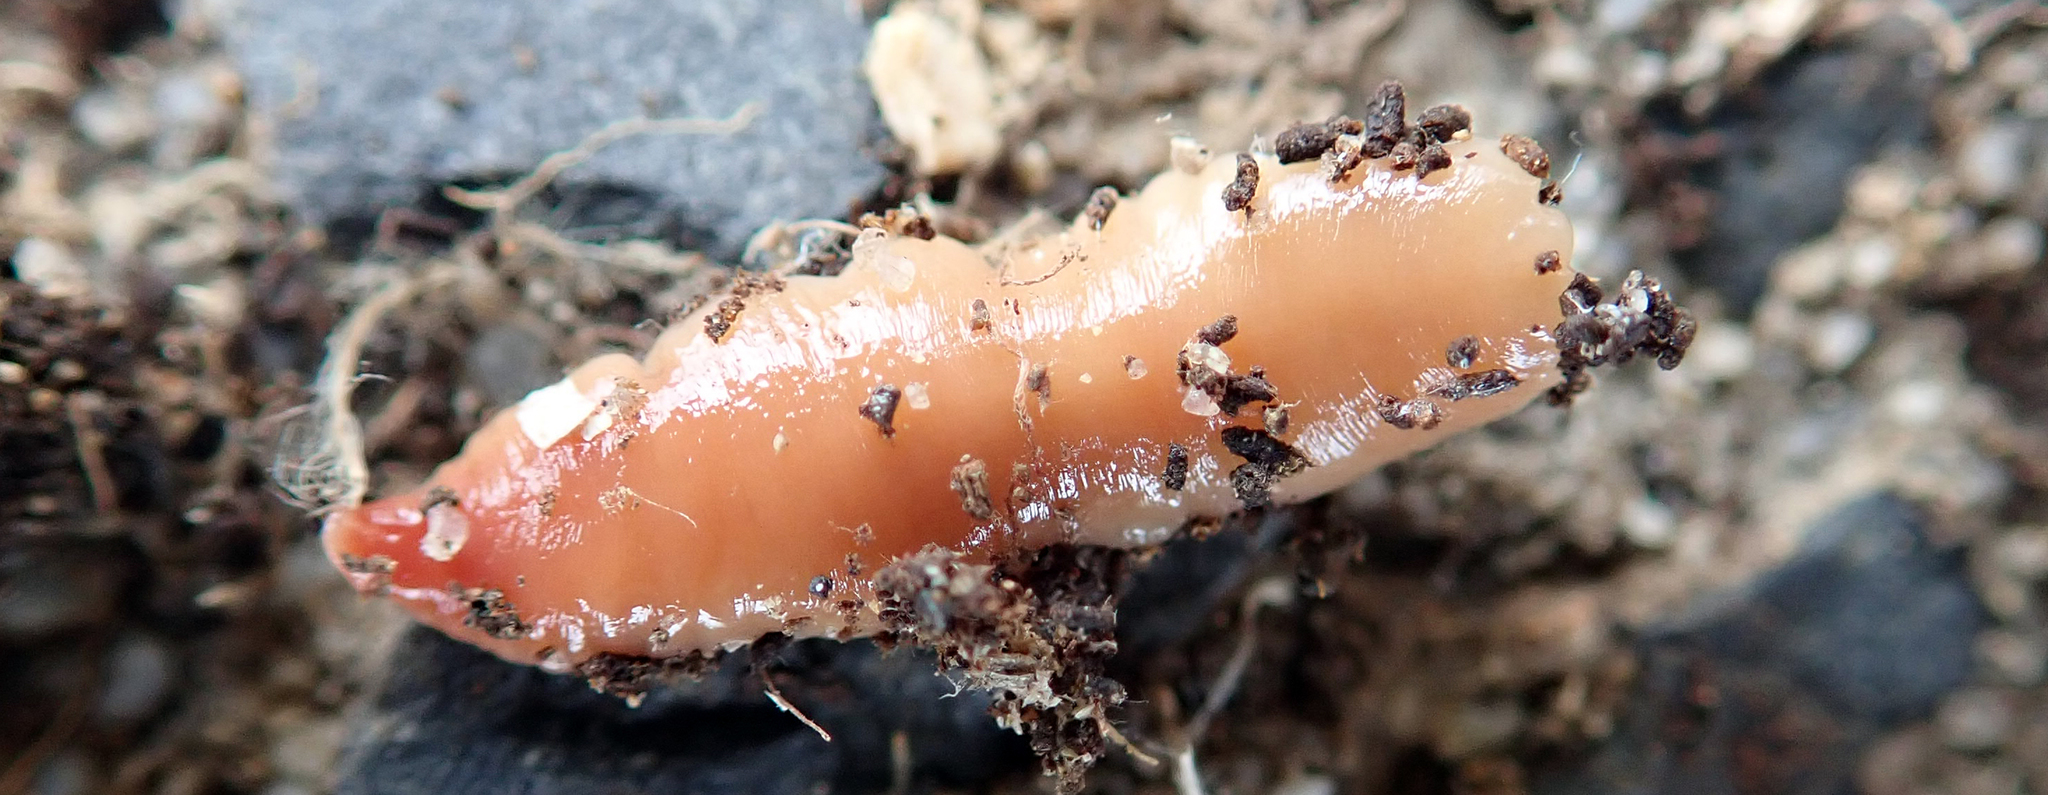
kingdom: Animalia
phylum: Platyhelminthes
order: Tricladida
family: Geoplanidae
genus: Australoplana
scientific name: Australoplana sanguinea
